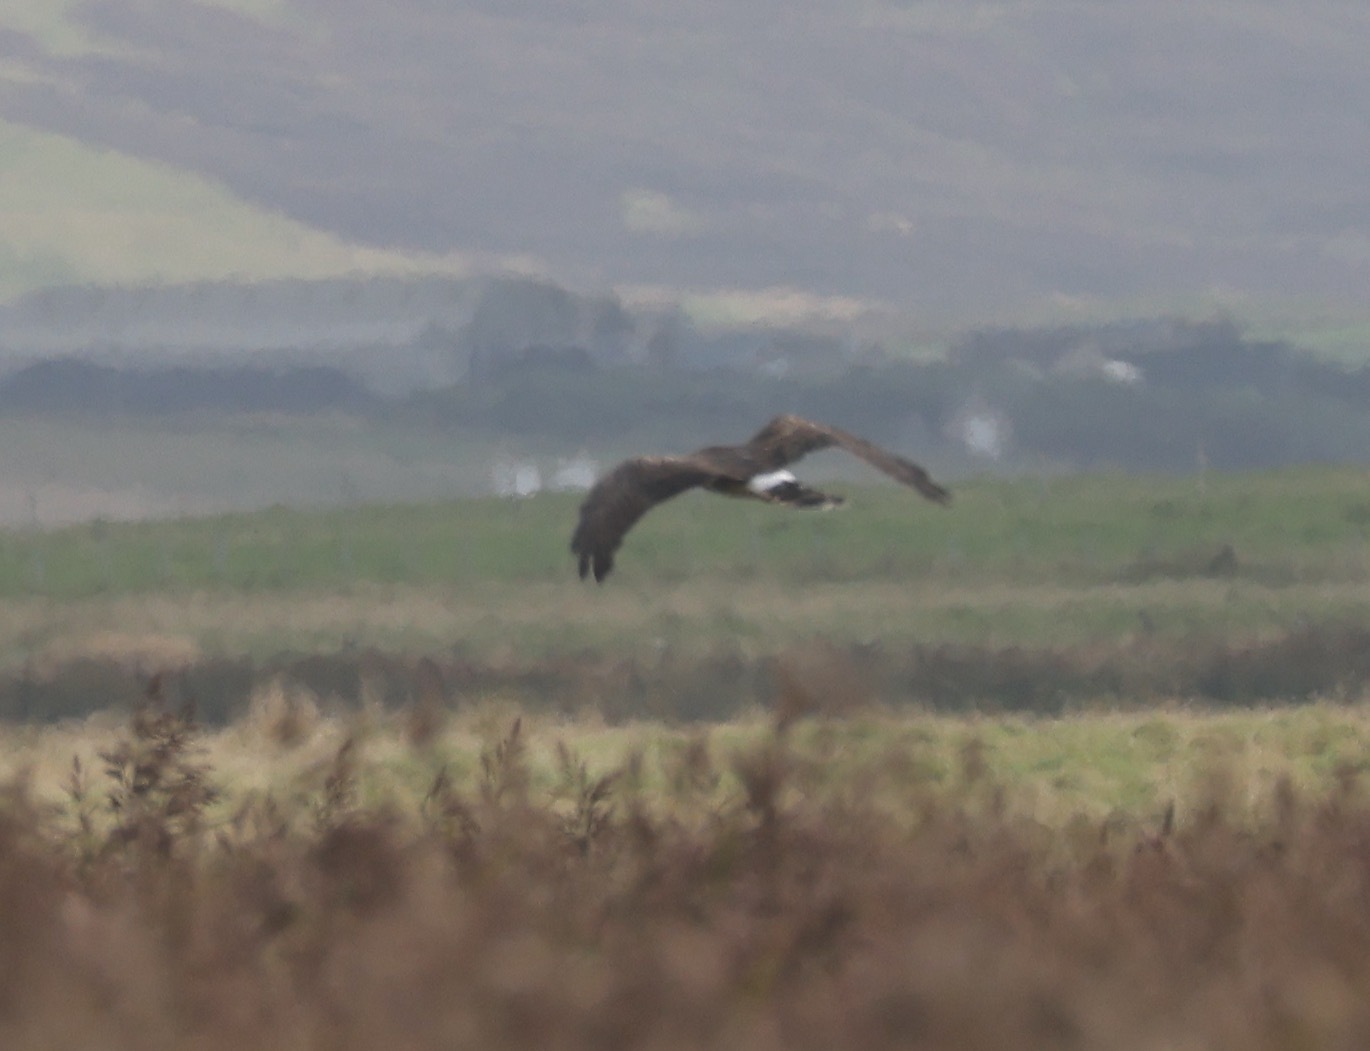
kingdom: Animalia
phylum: Chordata
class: Aves
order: Accipitriformes
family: Accipitridae
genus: Circus
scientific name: Circus cyaneus
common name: Hen harrier
